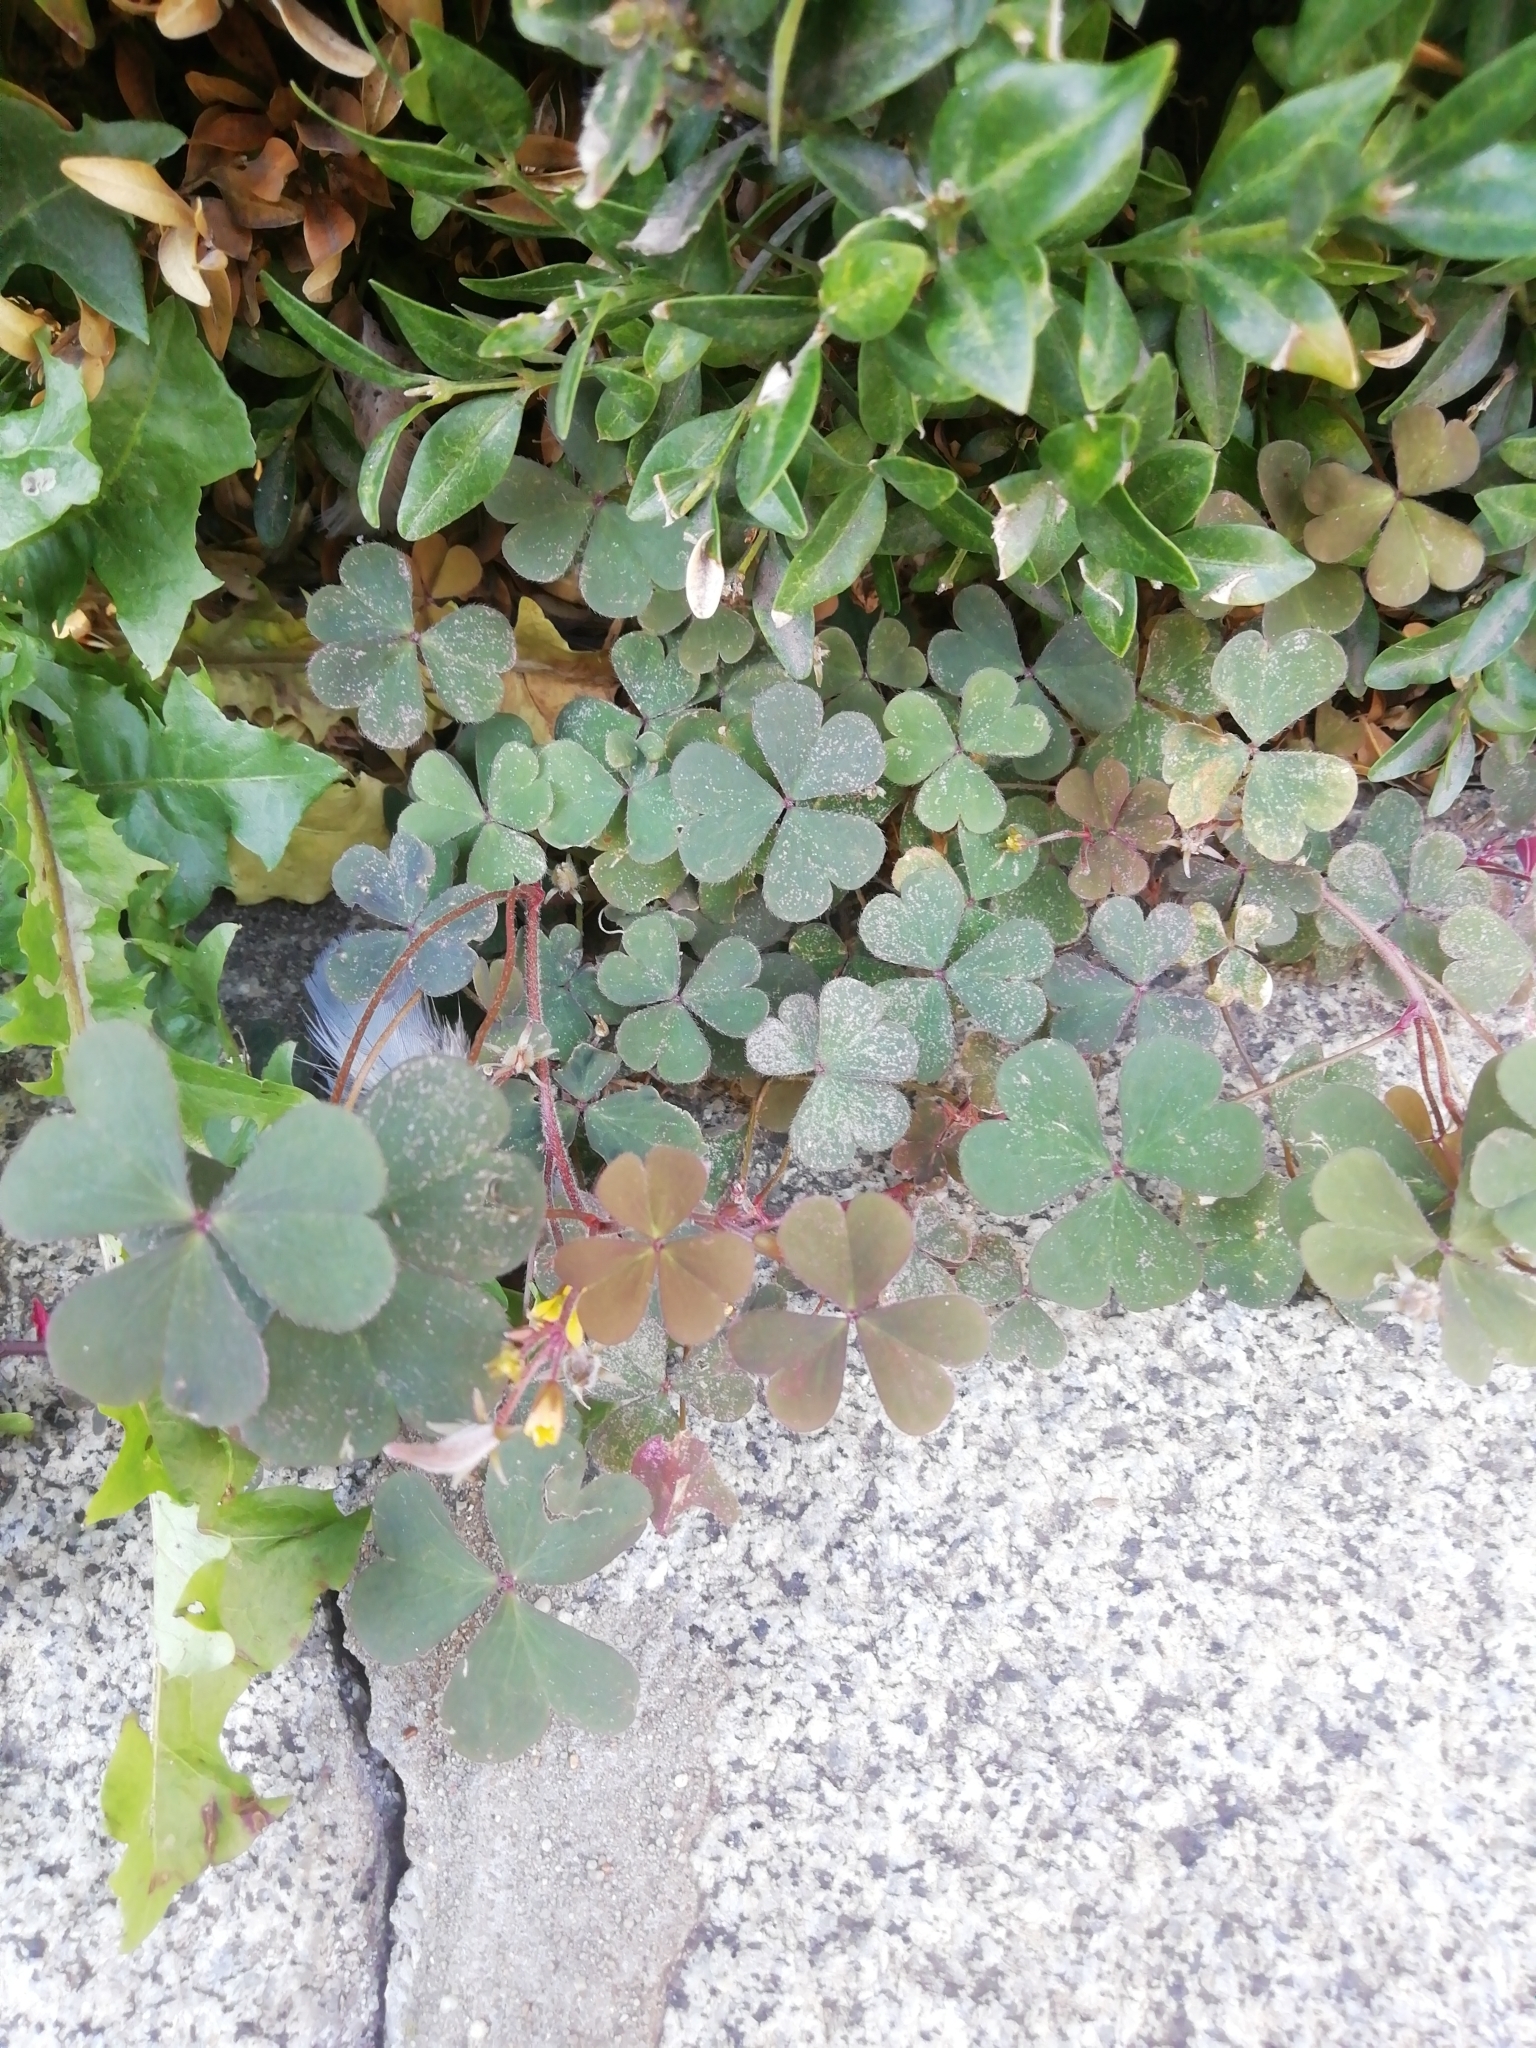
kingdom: Plantae
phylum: Tracheophyta
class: Magnoliopsida
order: Oxalidales
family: Oxalidaceae
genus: Oxalis
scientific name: Oxalis corniculata
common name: Procumbent yellow-sorrel
